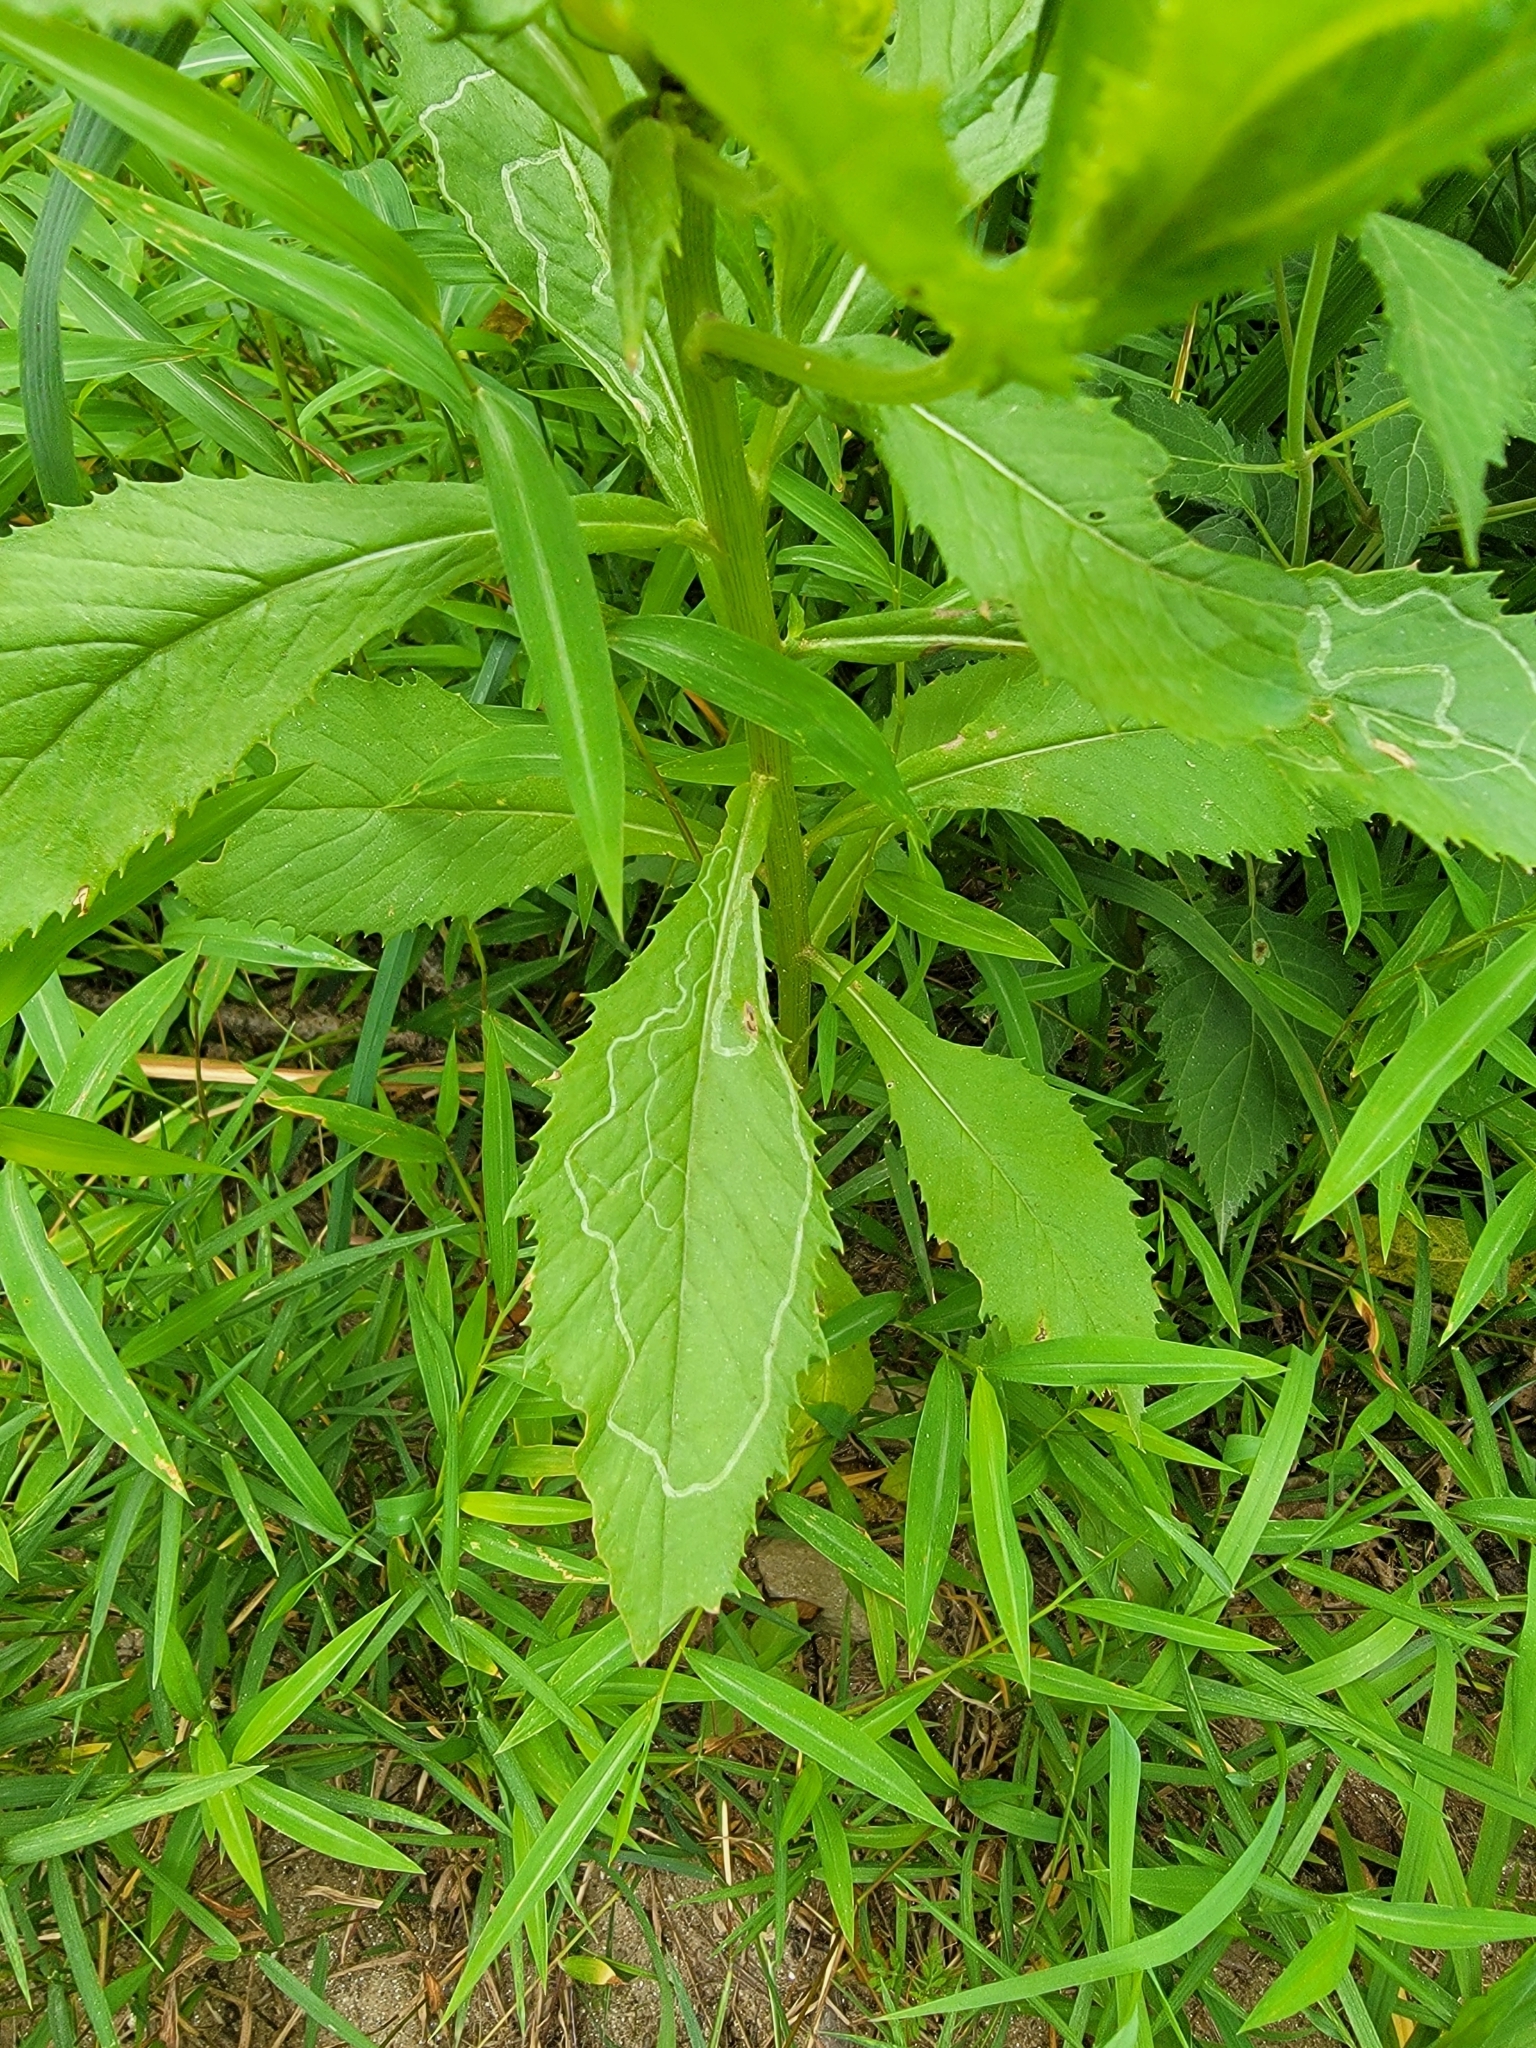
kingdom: Animalia
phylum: Arthropoda
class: Insecta
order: Lepidoptera
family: Gracillariidae
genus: Phyllocnistis
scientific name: Phyllocnistis insignis
